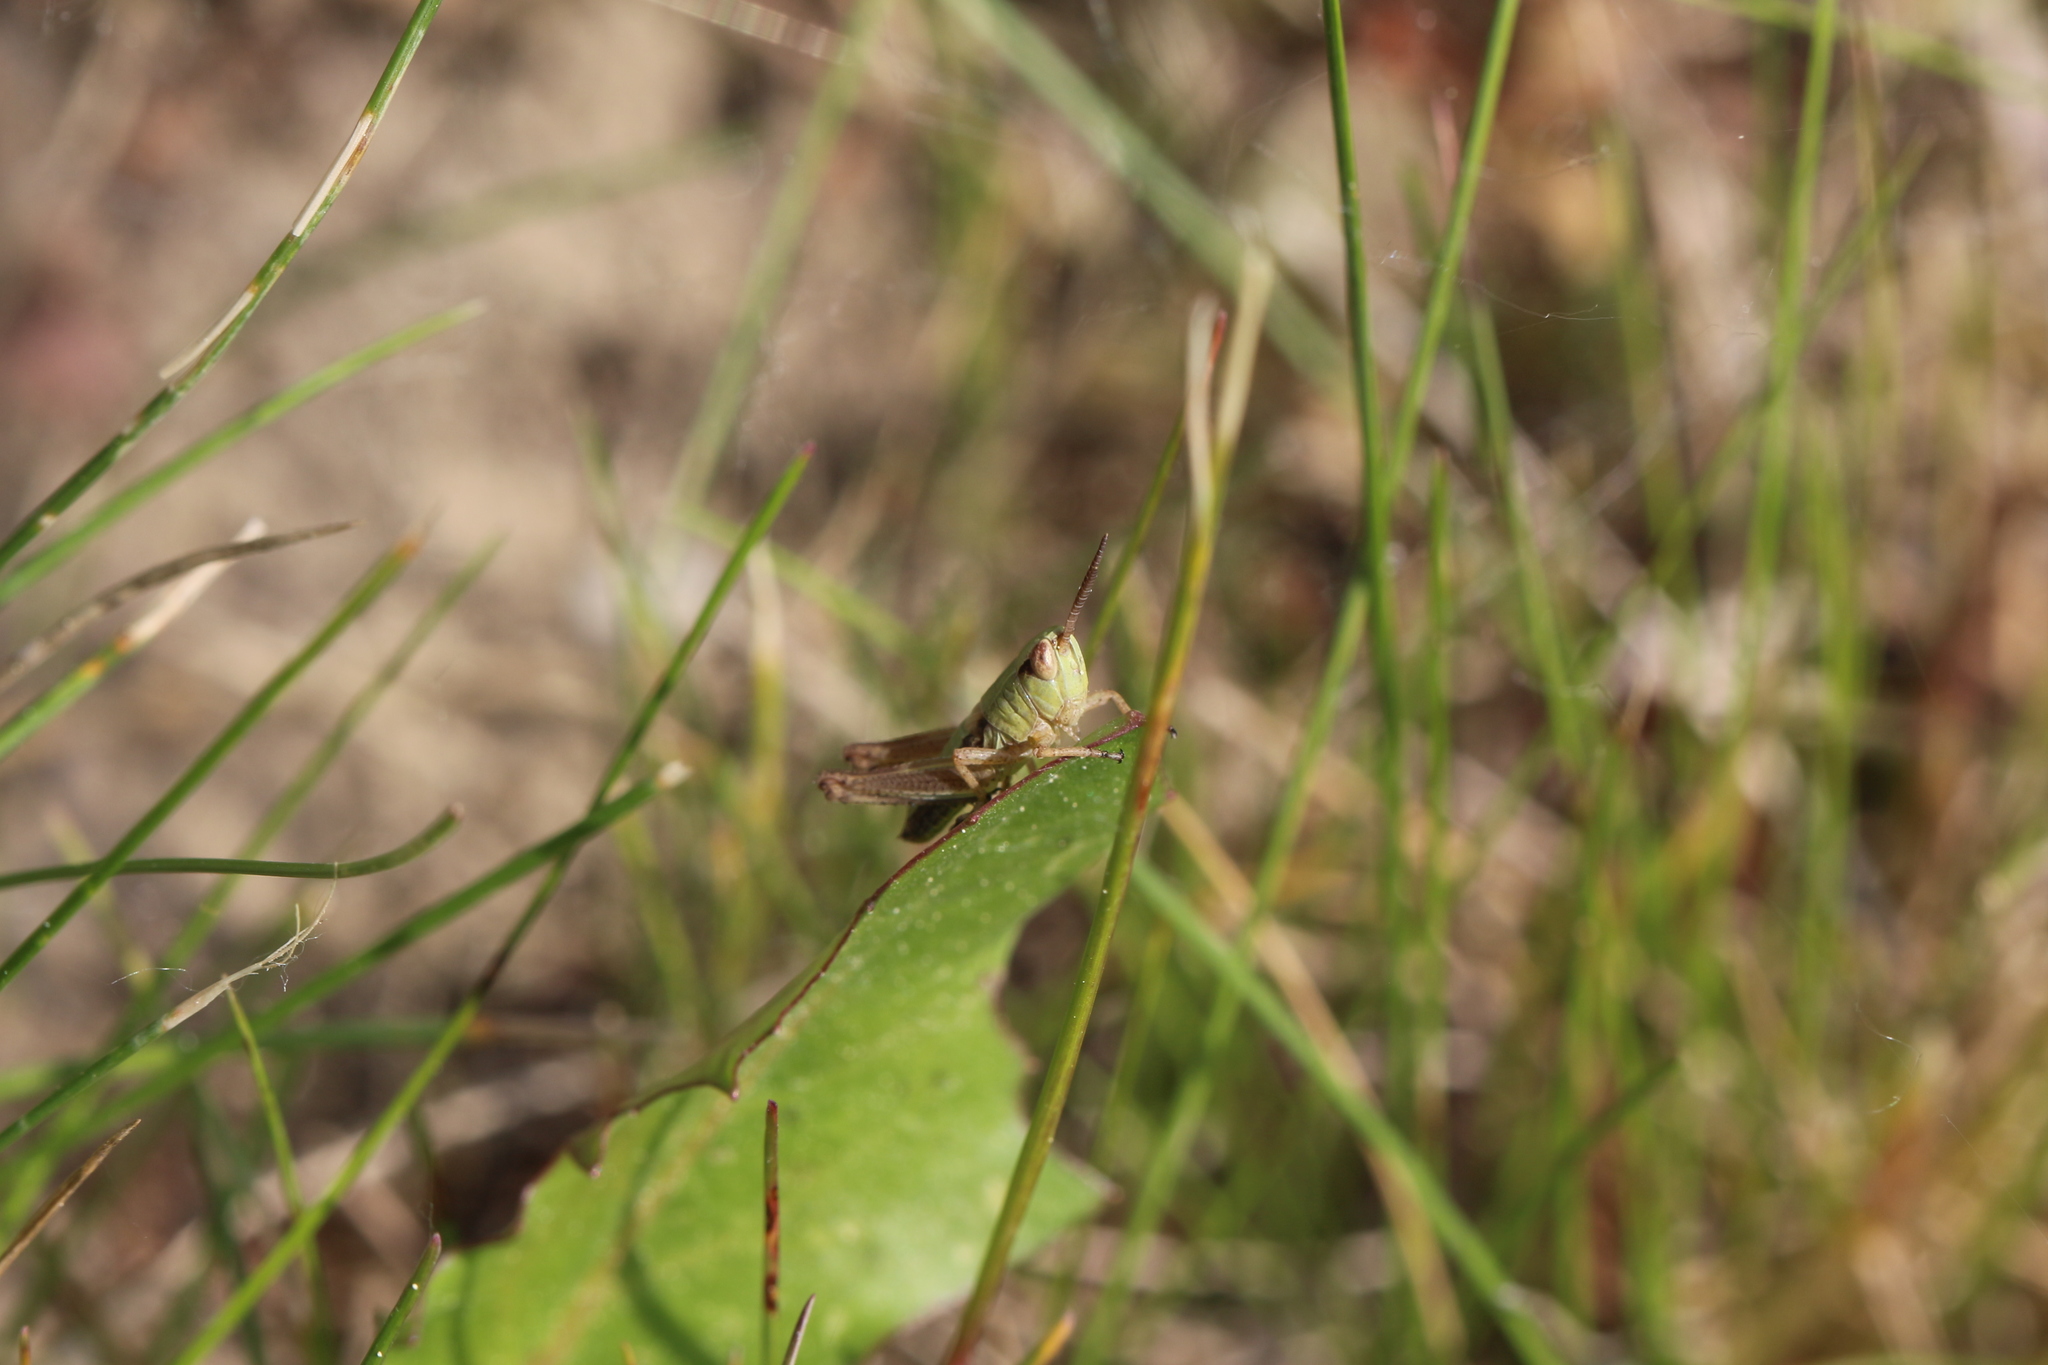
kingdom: Animalia
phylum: Arthropoda
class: Insecta
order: Orthoptera
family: Acrididae
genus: Pseudochorthippus
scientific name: Pseudochorthippus parallelus
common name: Meadow grasshopper
